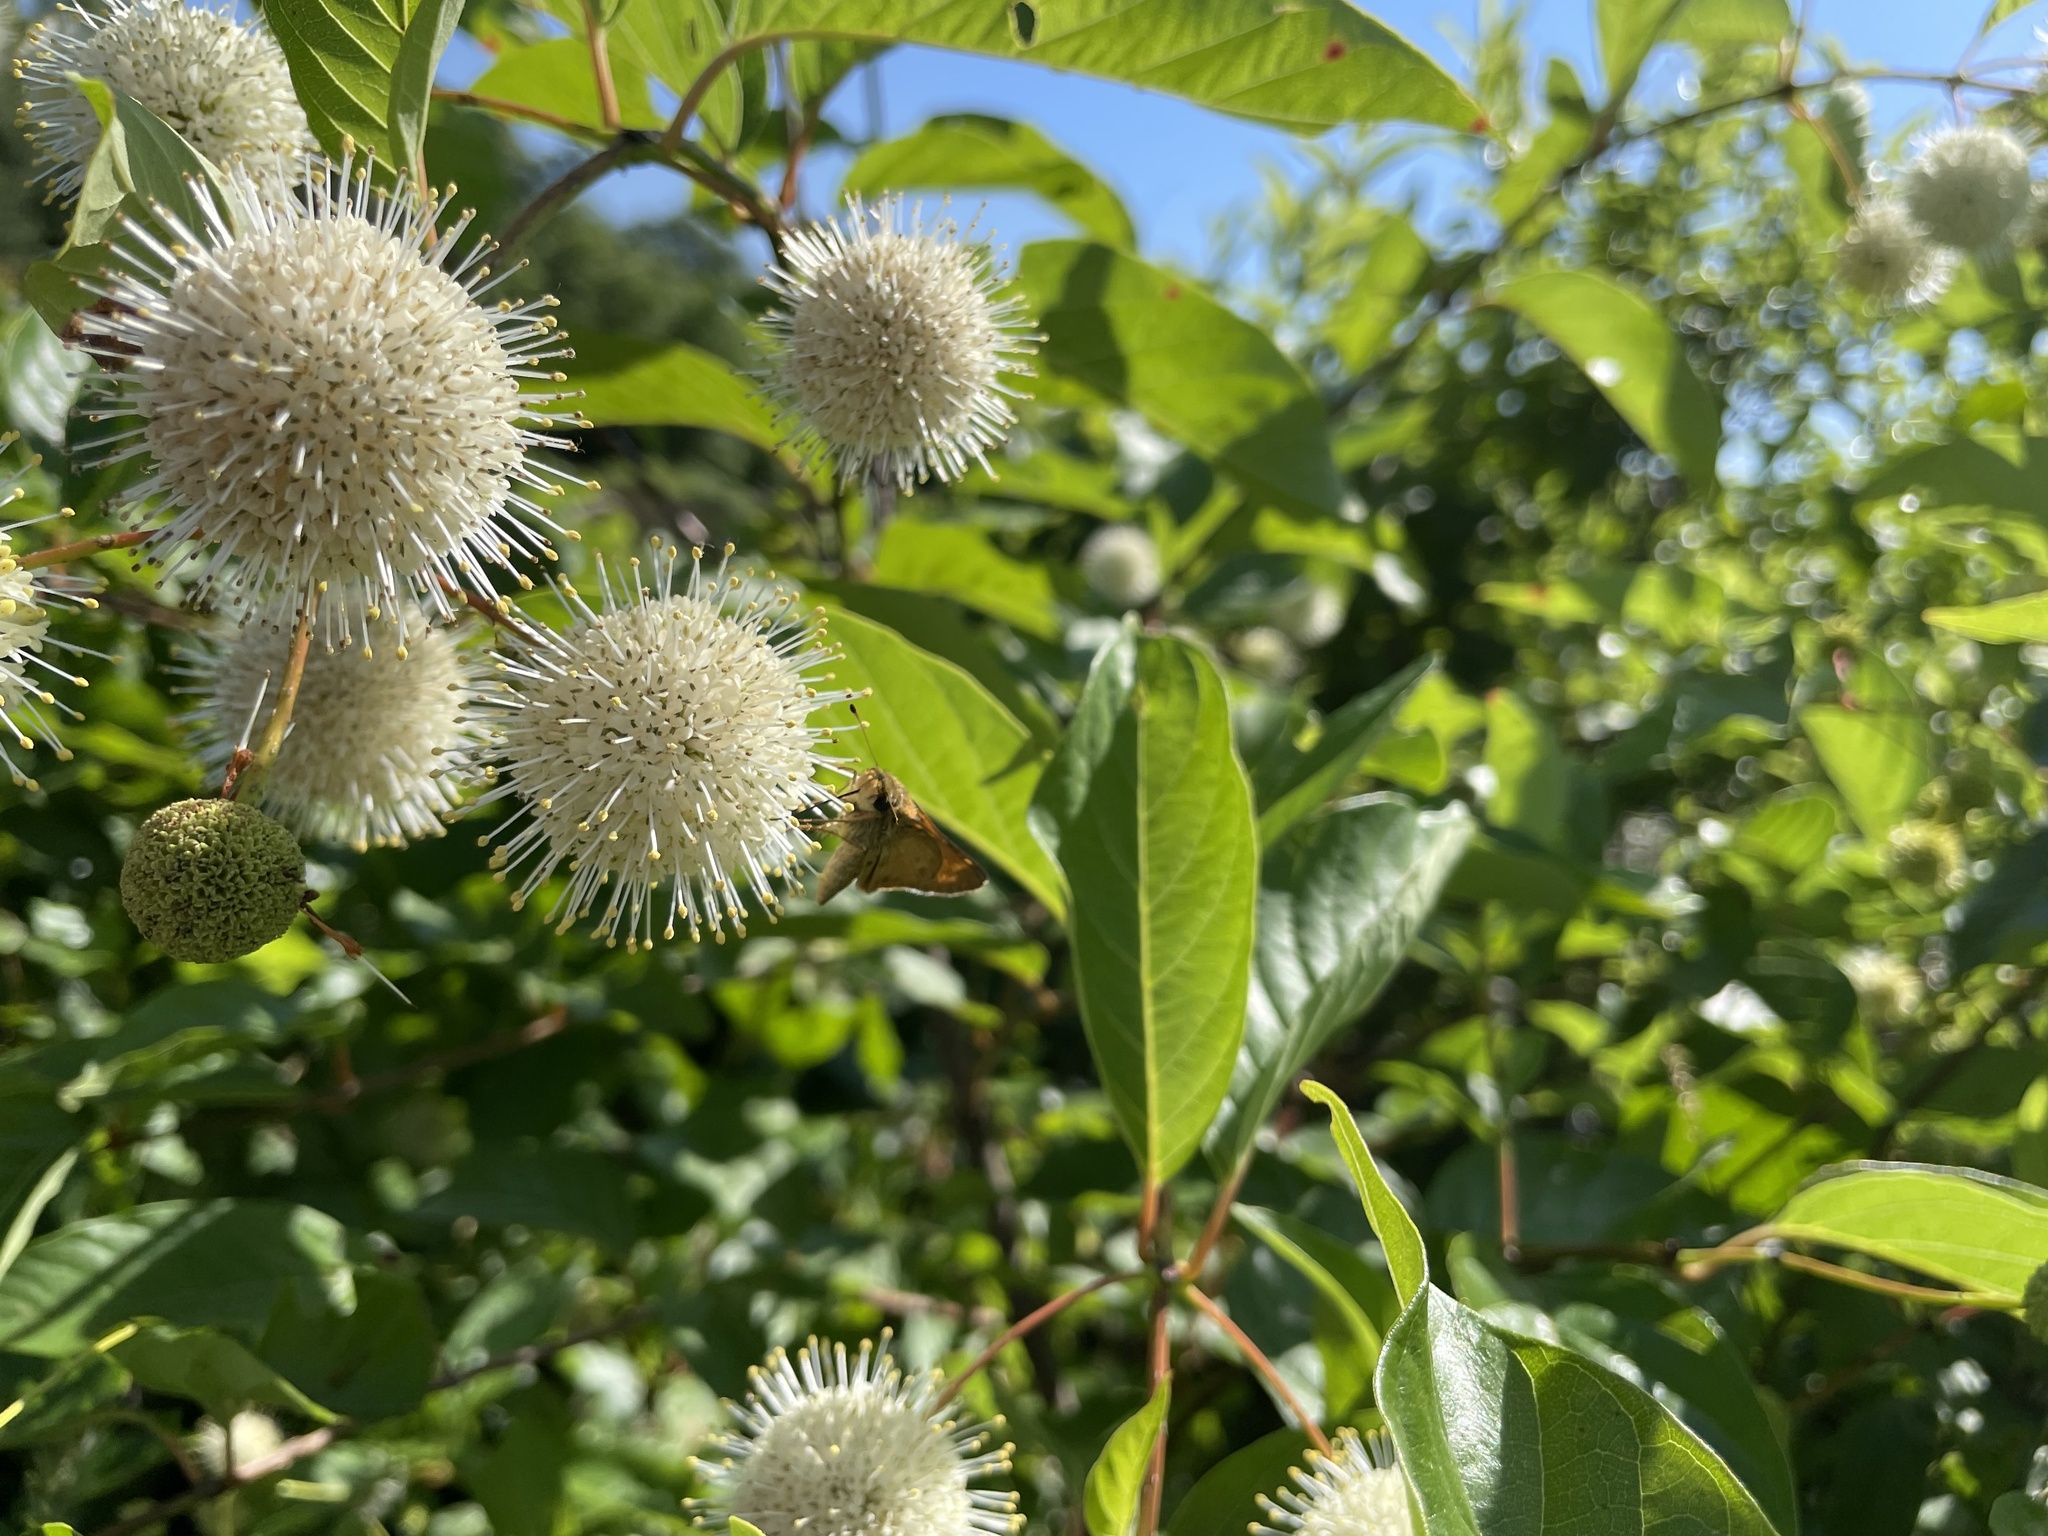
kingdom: Animalia
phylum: Arthropoda
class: Insecta
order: Lepidoptera
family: Hesperiidae
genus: Atalopedes
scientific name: Atalopedes
